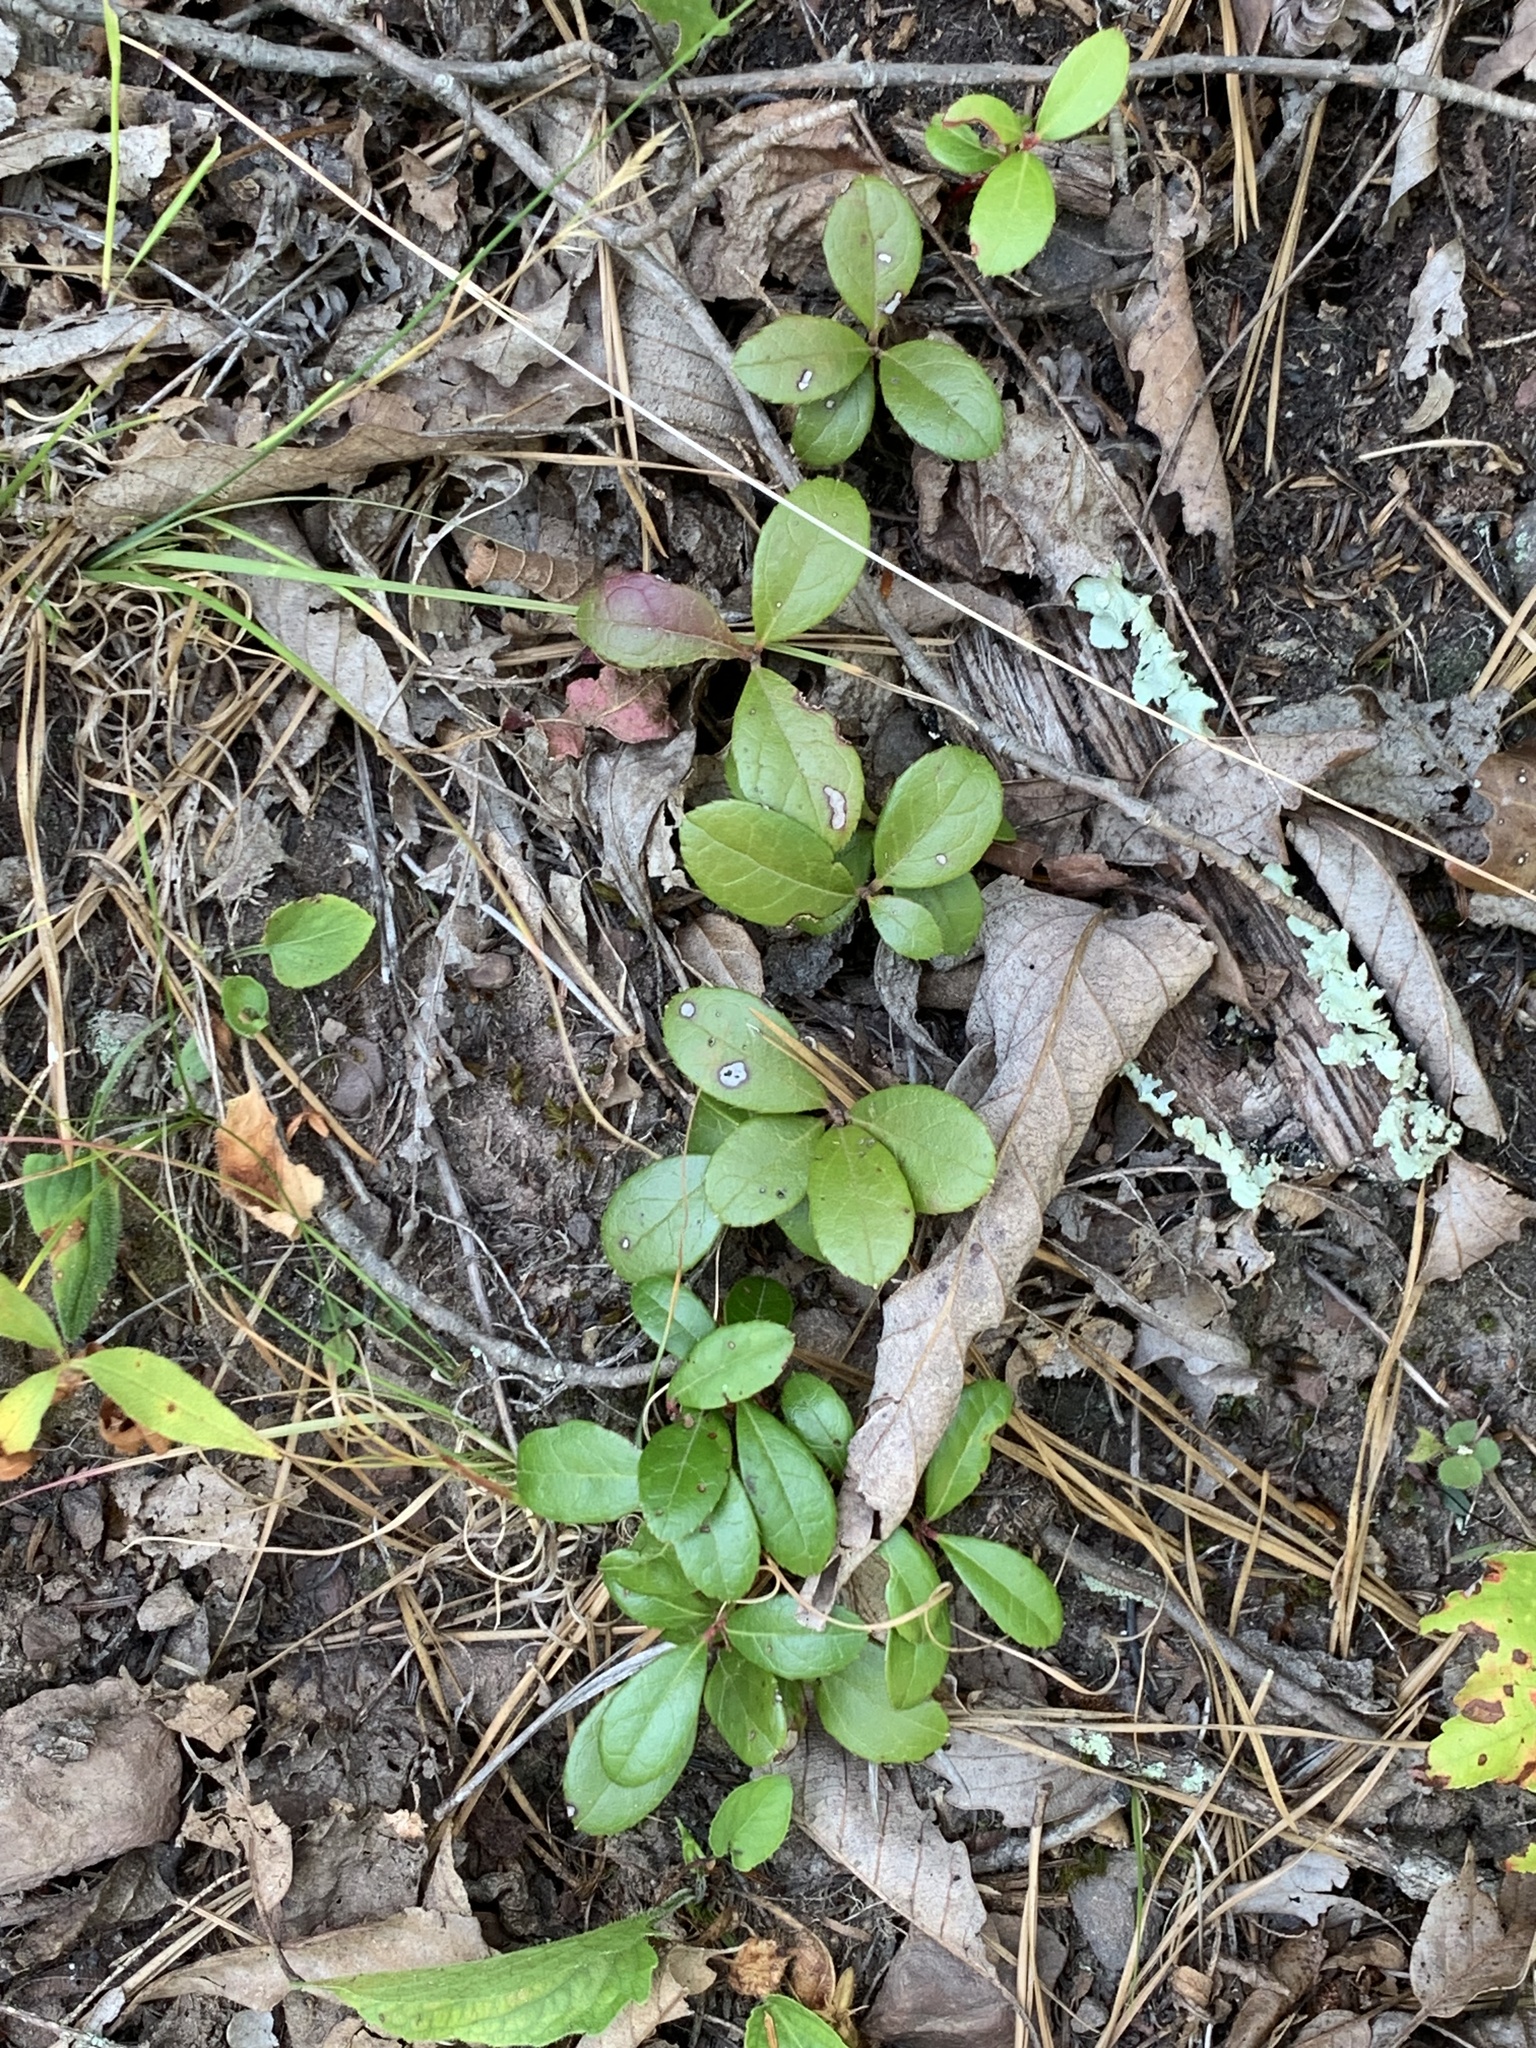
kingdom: Plantae
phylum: Tracheophyta
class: Magnoliopsida
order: Ericales
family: Ericaceae
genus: Gaultheria
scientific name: Gaultheria procumbens
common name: Checkerberry
